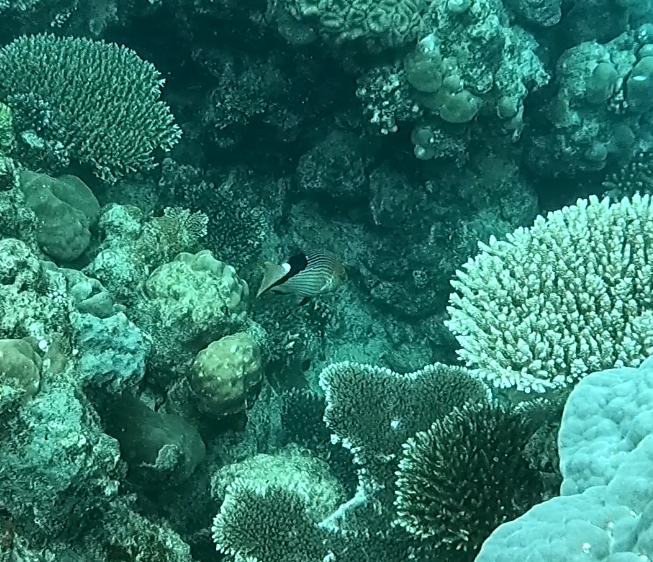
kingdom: Animalia
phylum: Chordata
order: Perciformes
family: Labridae
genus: Bodianus
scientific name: Bodianus loxozonus
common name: Blackfin hogfish
